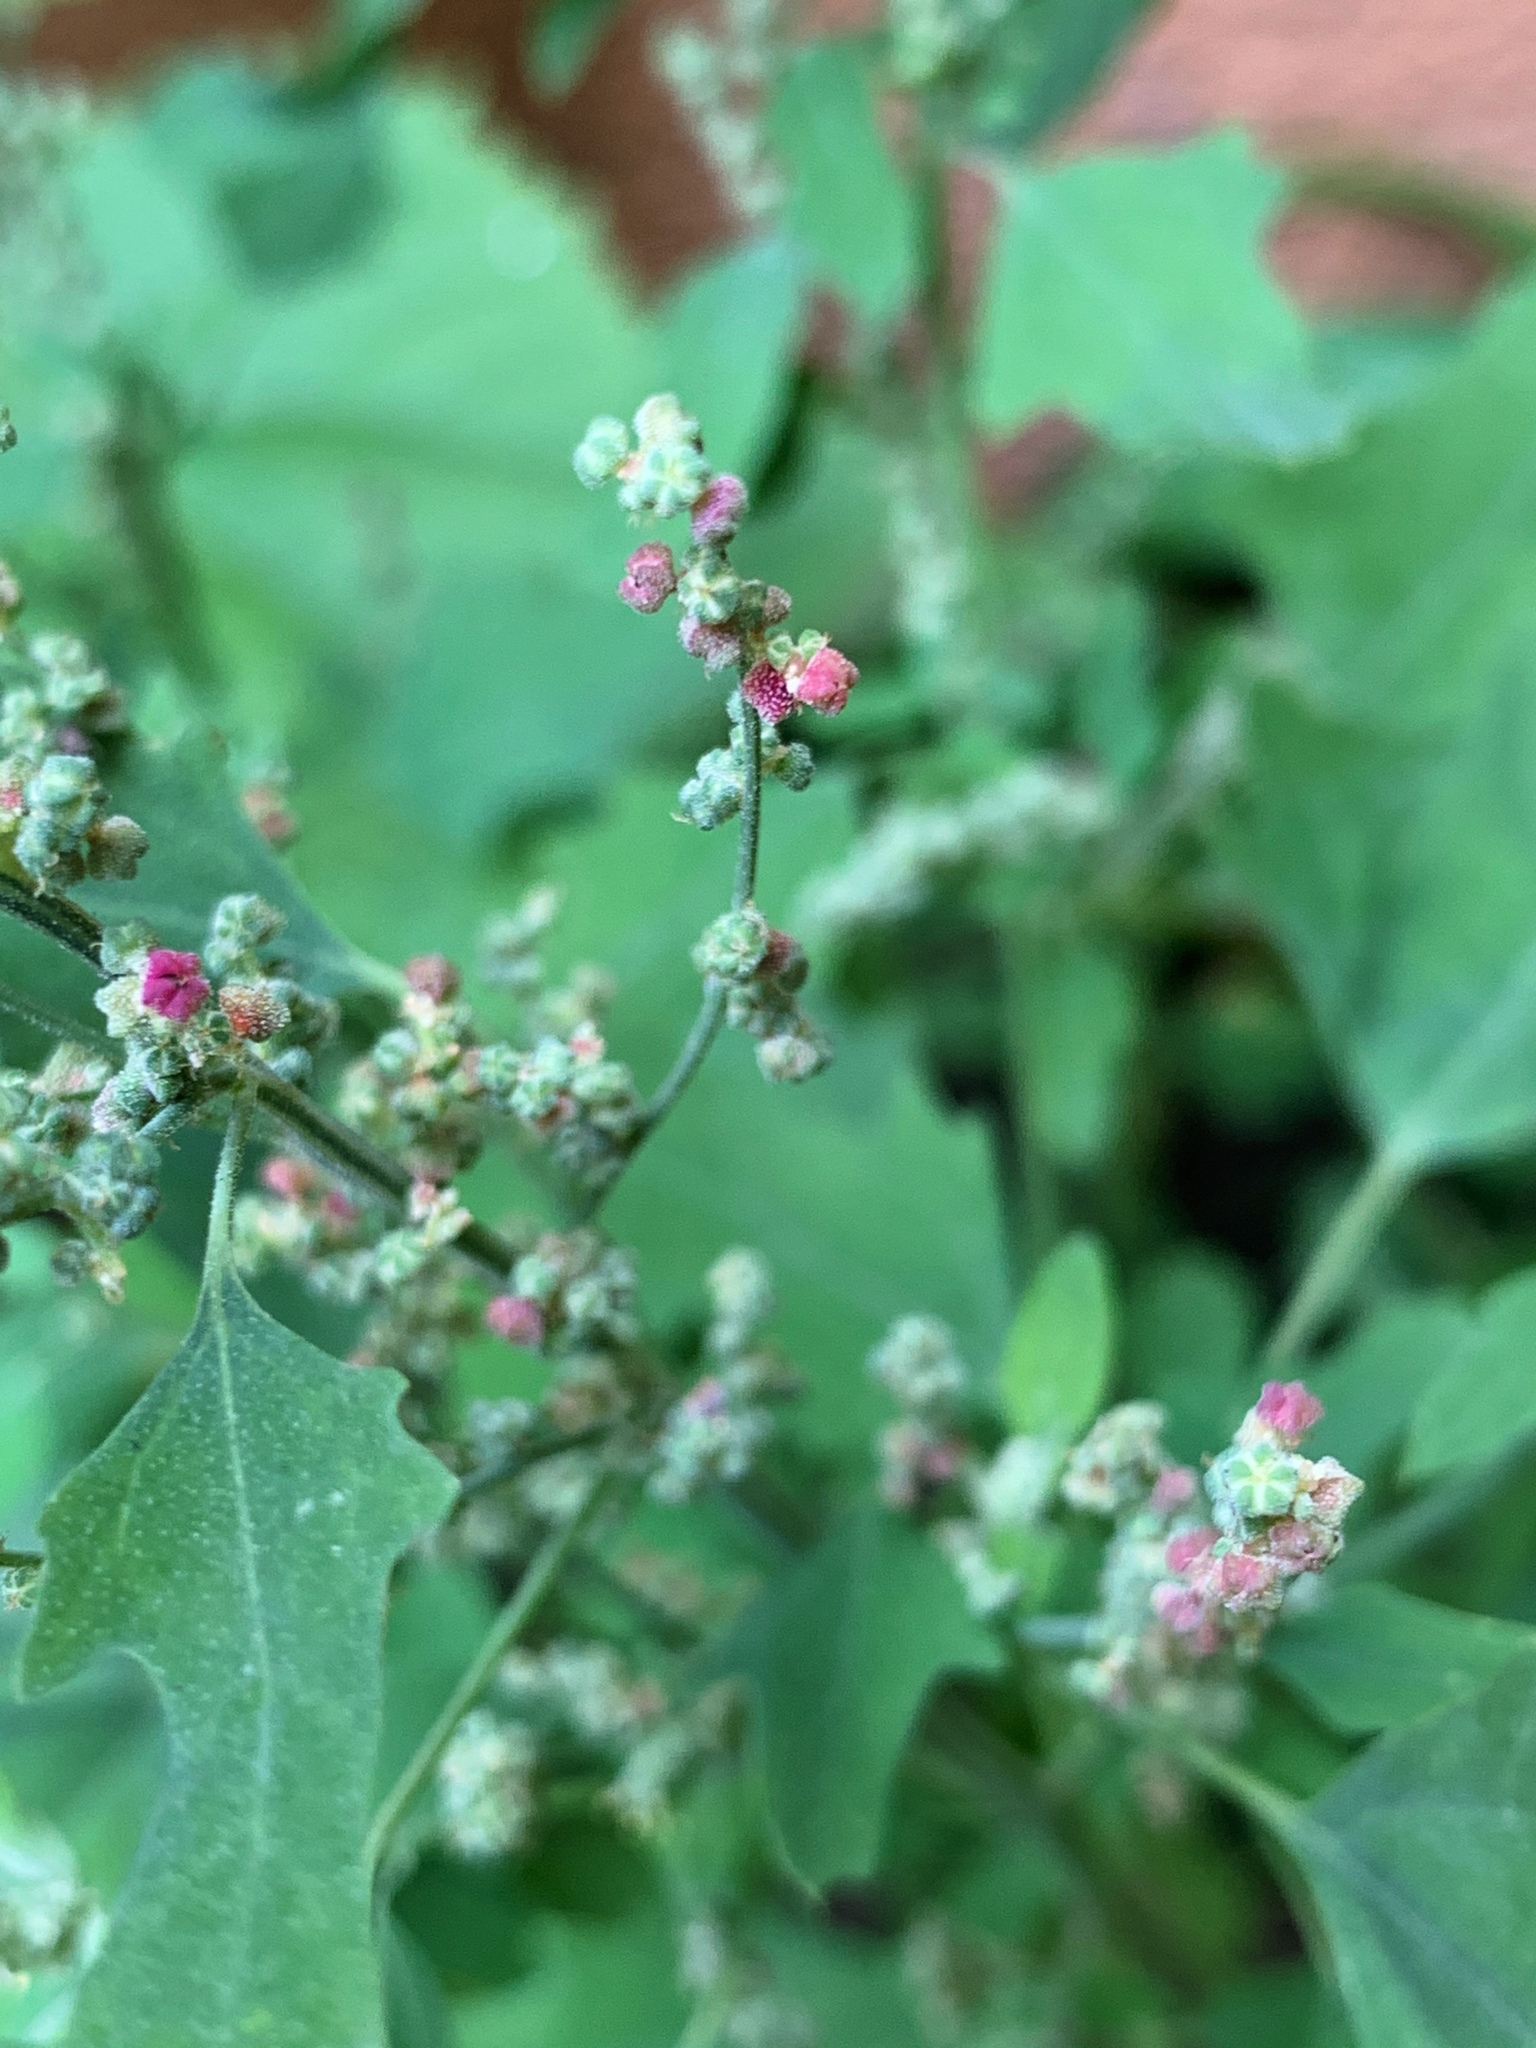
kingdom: Plantae
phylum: Tracheophyta
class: Magnoliopsida
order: Caryophyllales
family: Amaranthaceae
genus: Chenopodium
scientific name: Chenopodium album
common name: Fat-hen
